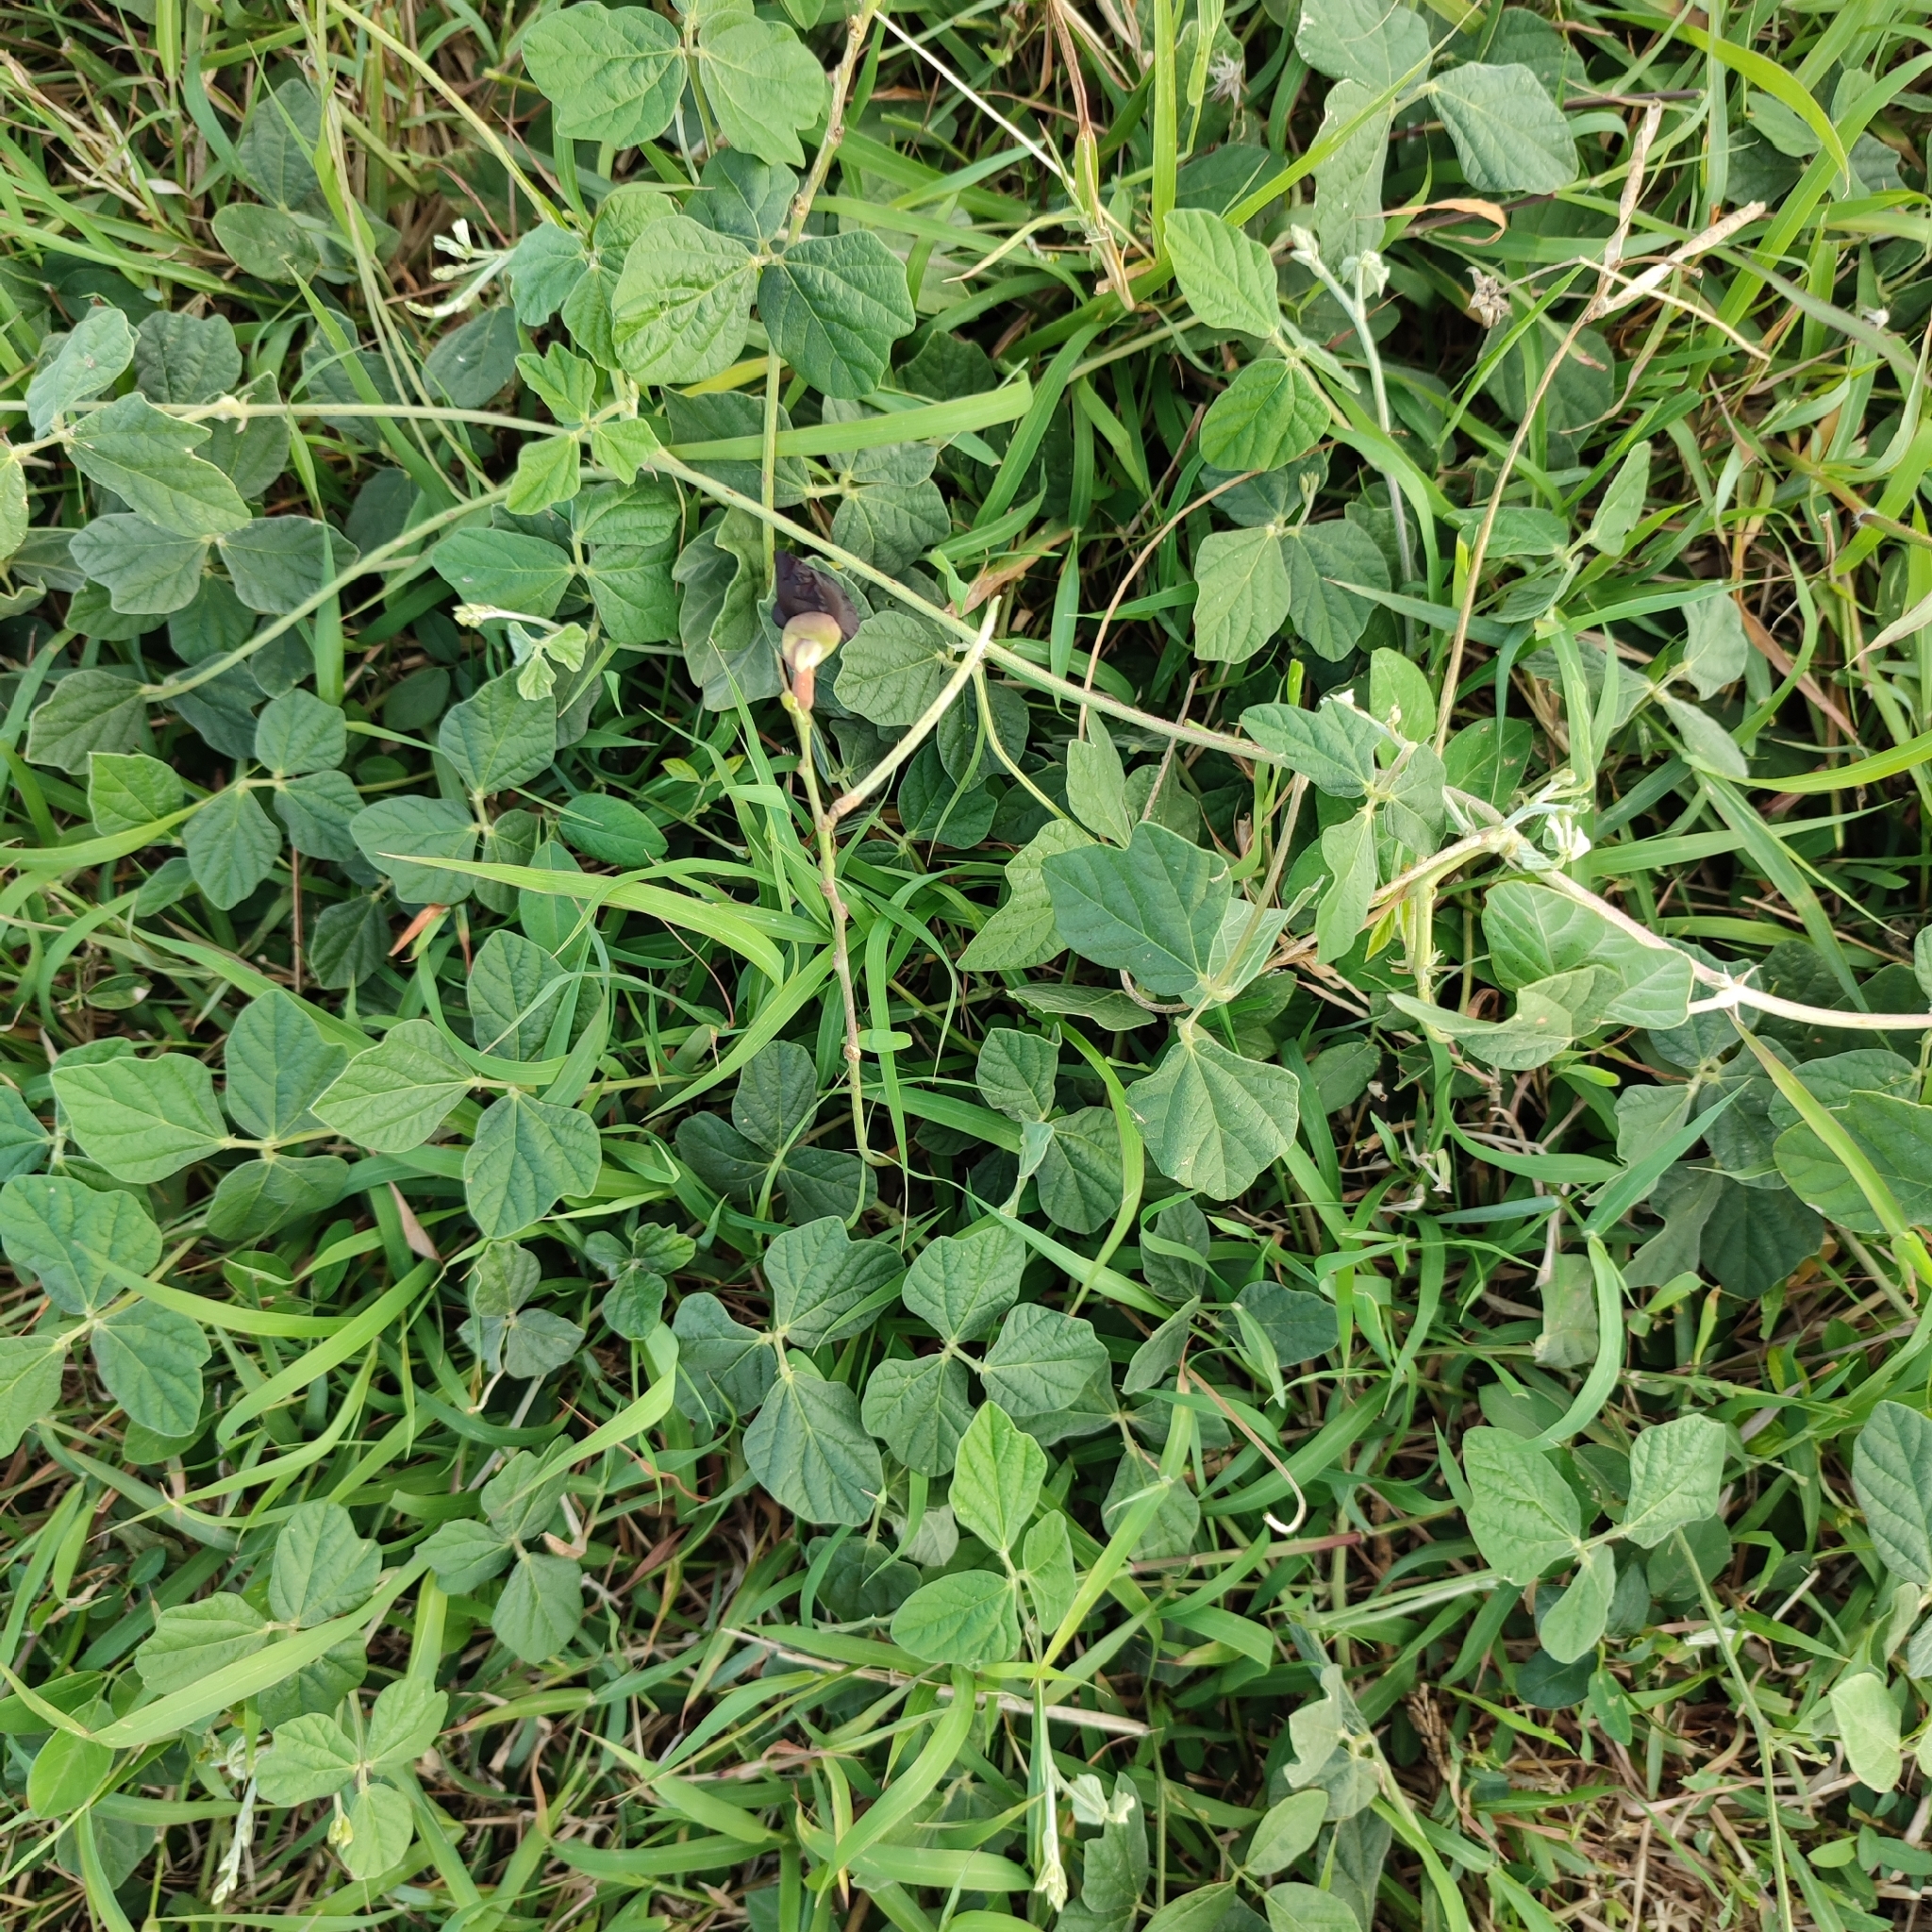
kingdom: Plantae
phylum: Tracheophyta
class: Magnoliopsida
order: Fabales
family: Fabaceae
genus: Macroptilium
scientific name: Macroptilium atropurpureum
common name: Purple bushbean
